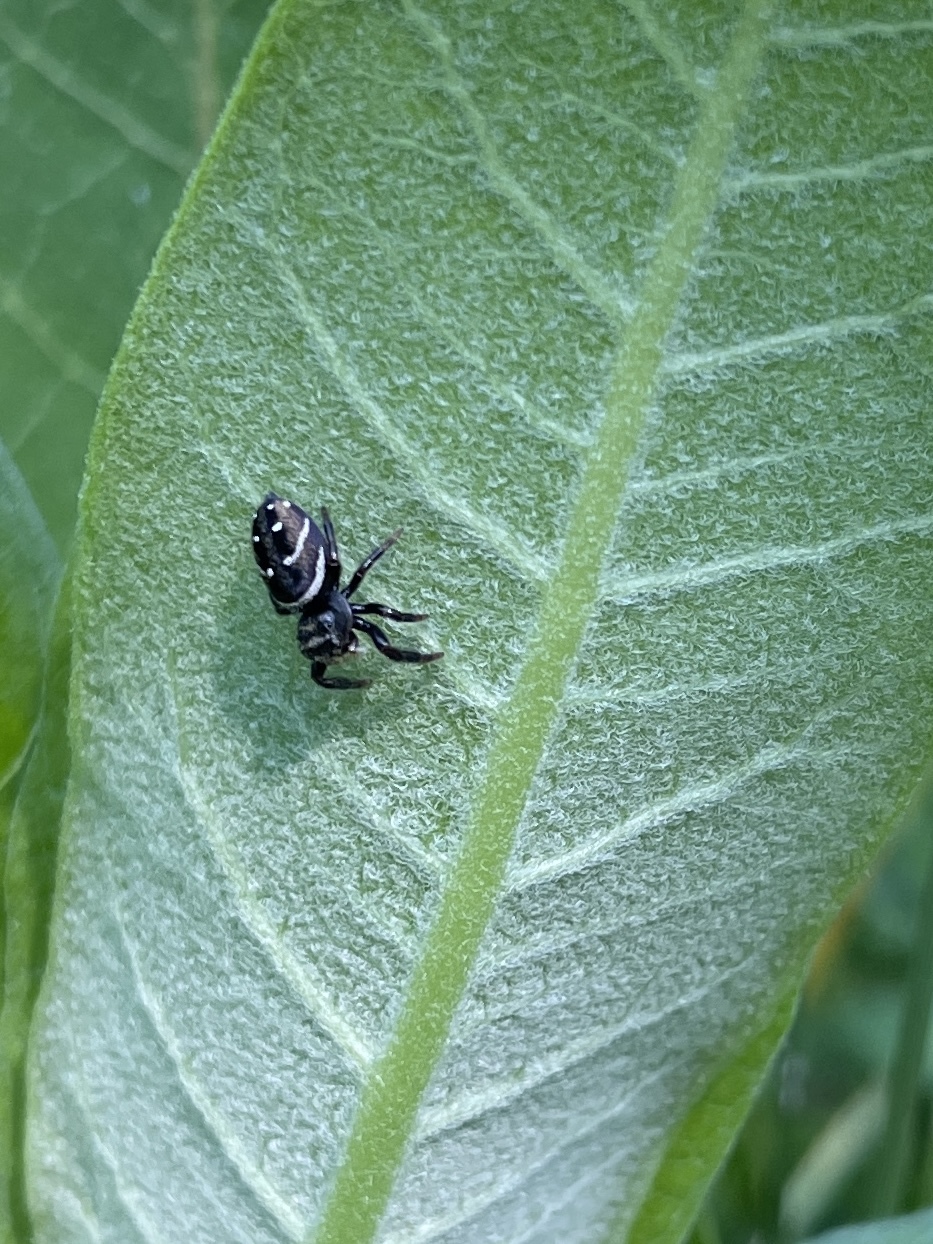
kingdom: Animalia
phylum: Arthropoda
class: Arachnida
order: Araneae
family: Salticidae
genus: Phidippus
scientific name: Phidippus clarus
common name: Brilliant jumping spider
